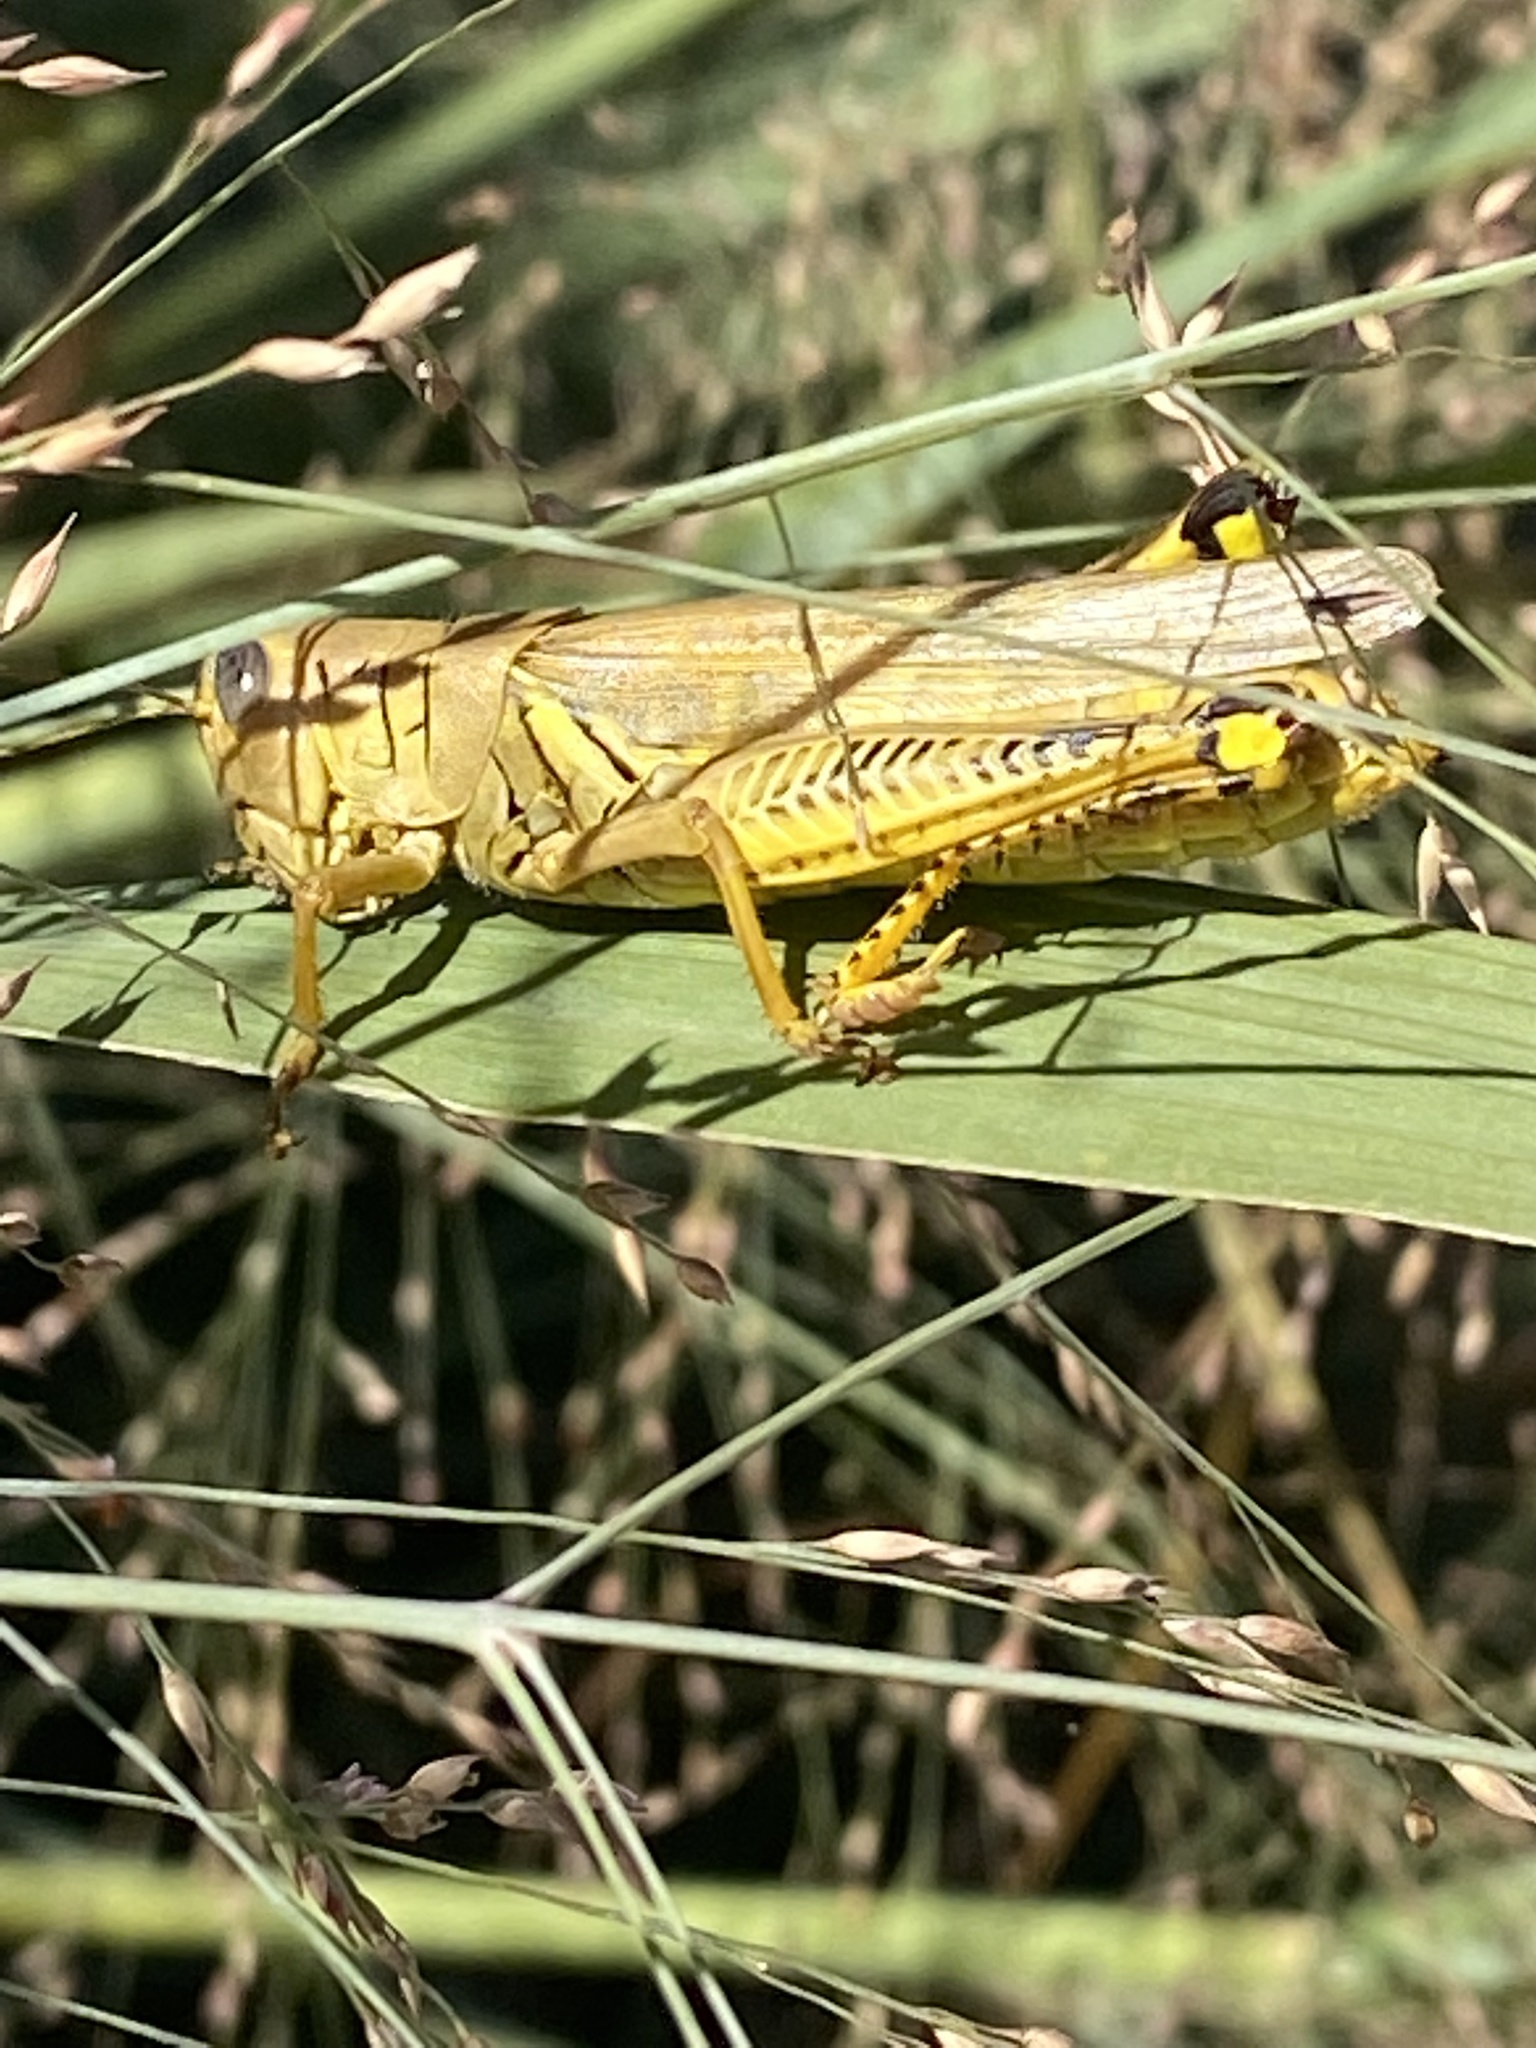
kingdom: Animalia
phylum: Arthropoda
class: Insecta
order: Orthoptera
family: Acrididae
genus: Melanoplus
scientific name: Melanoplus differentialis
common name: Differential grasshopper
